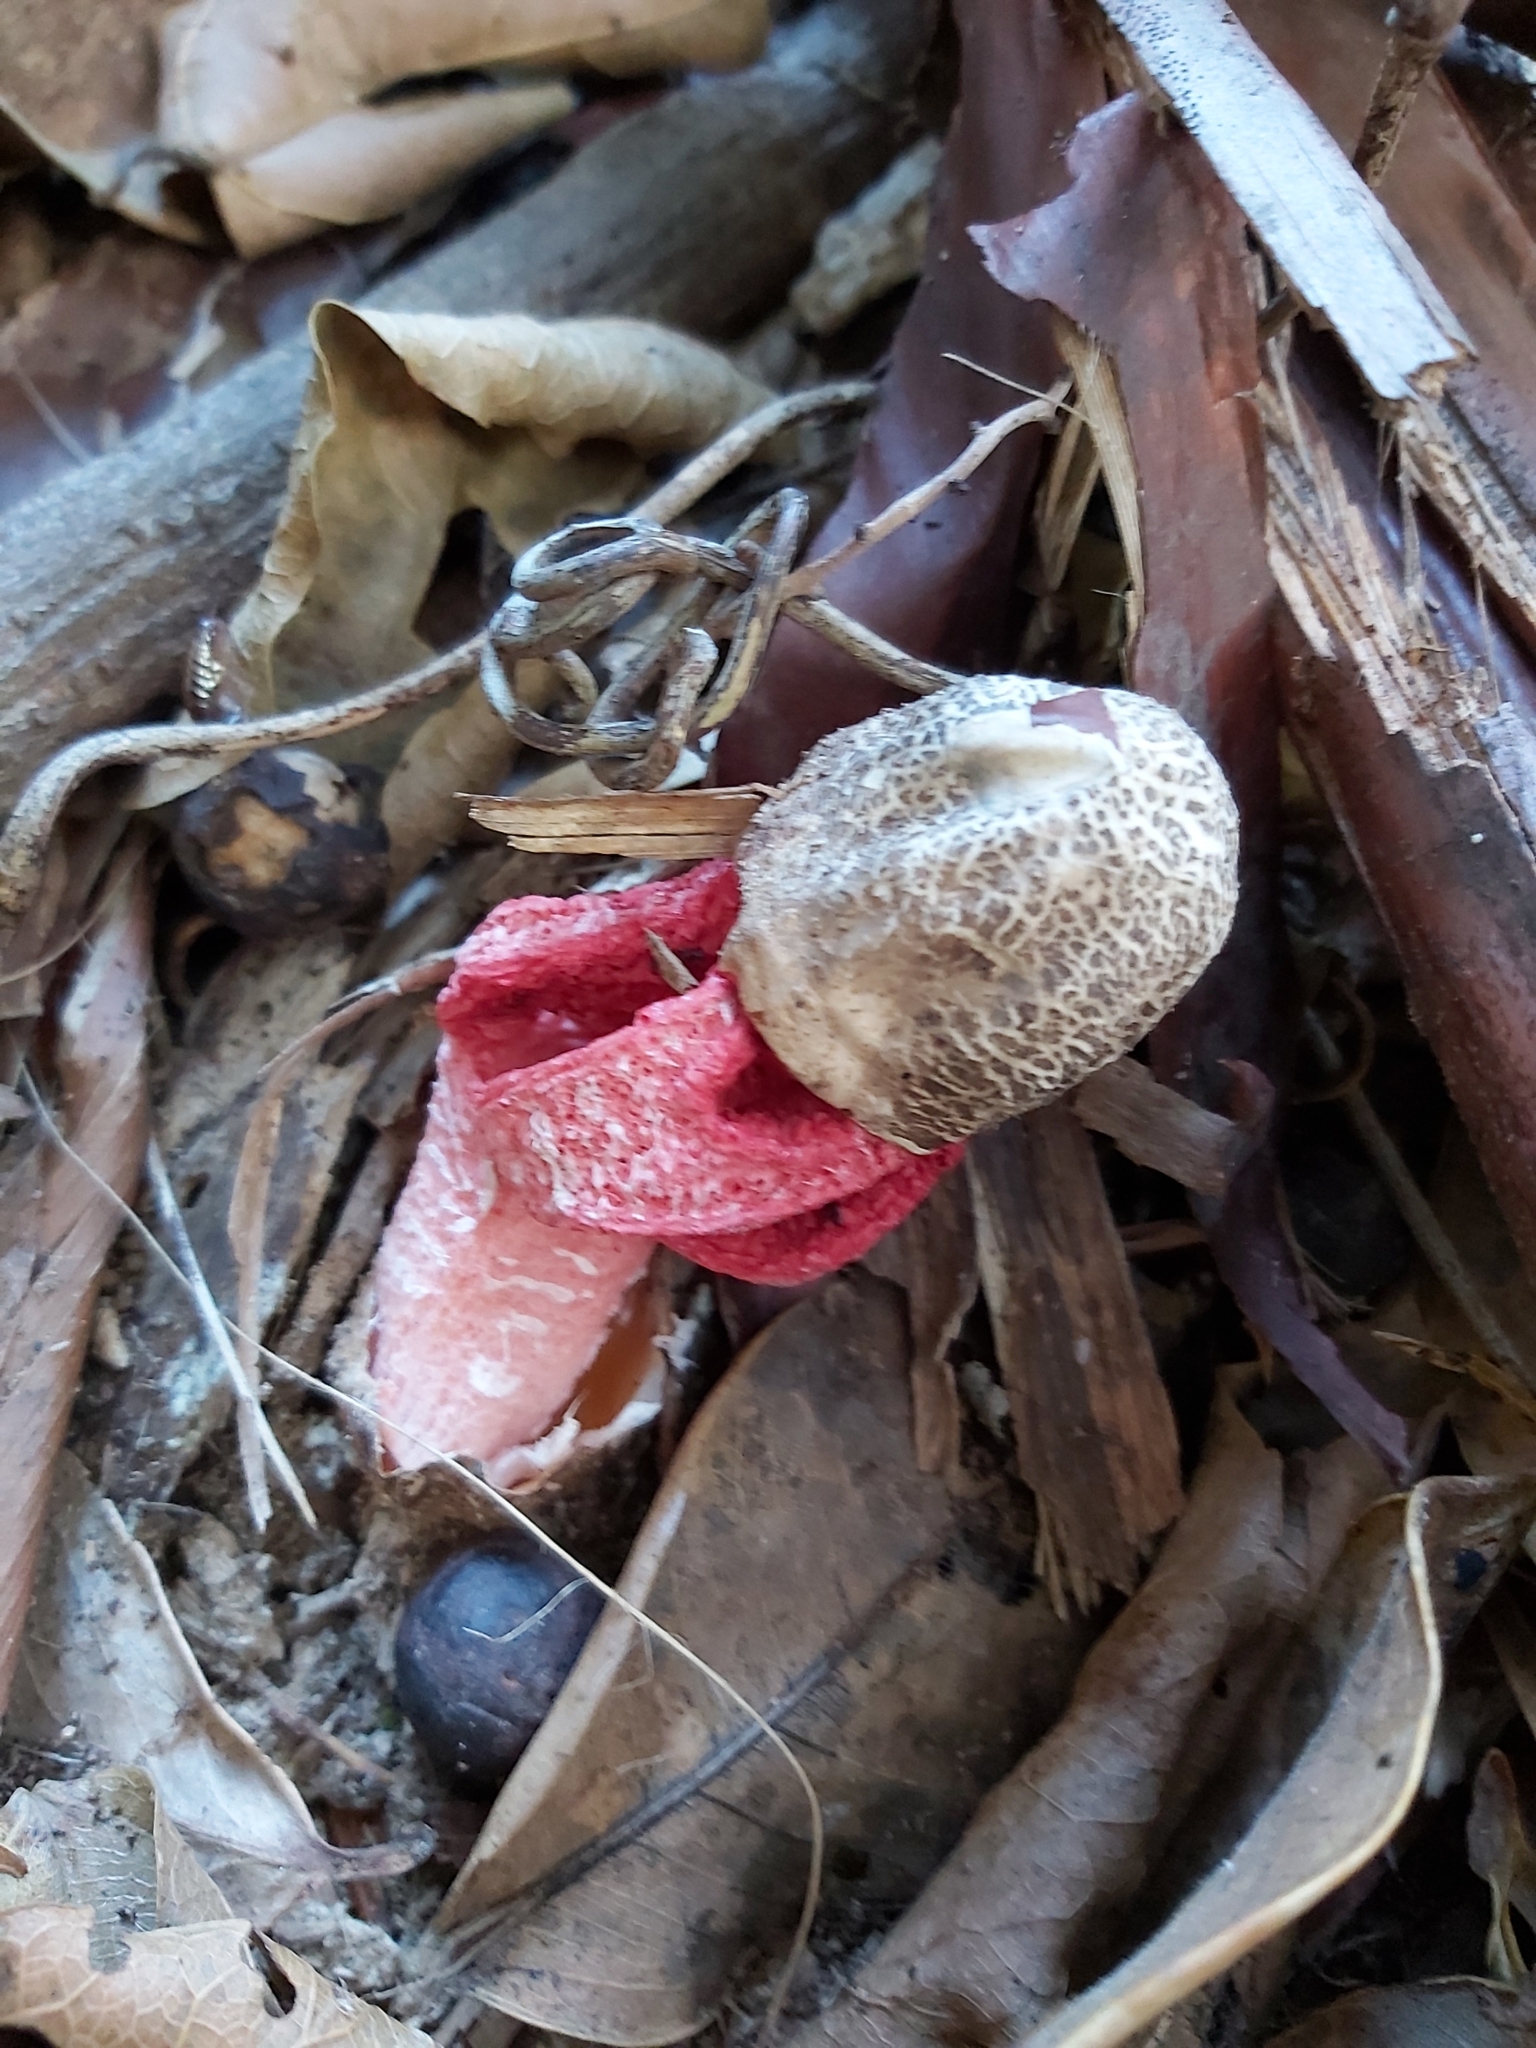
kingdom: Fungi
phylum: Basidiomycota
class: Agaricomycetes
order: Phallales
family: Phallaceae
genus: Clathrus
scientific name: Clathrus archeri
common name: Devil's fingers
